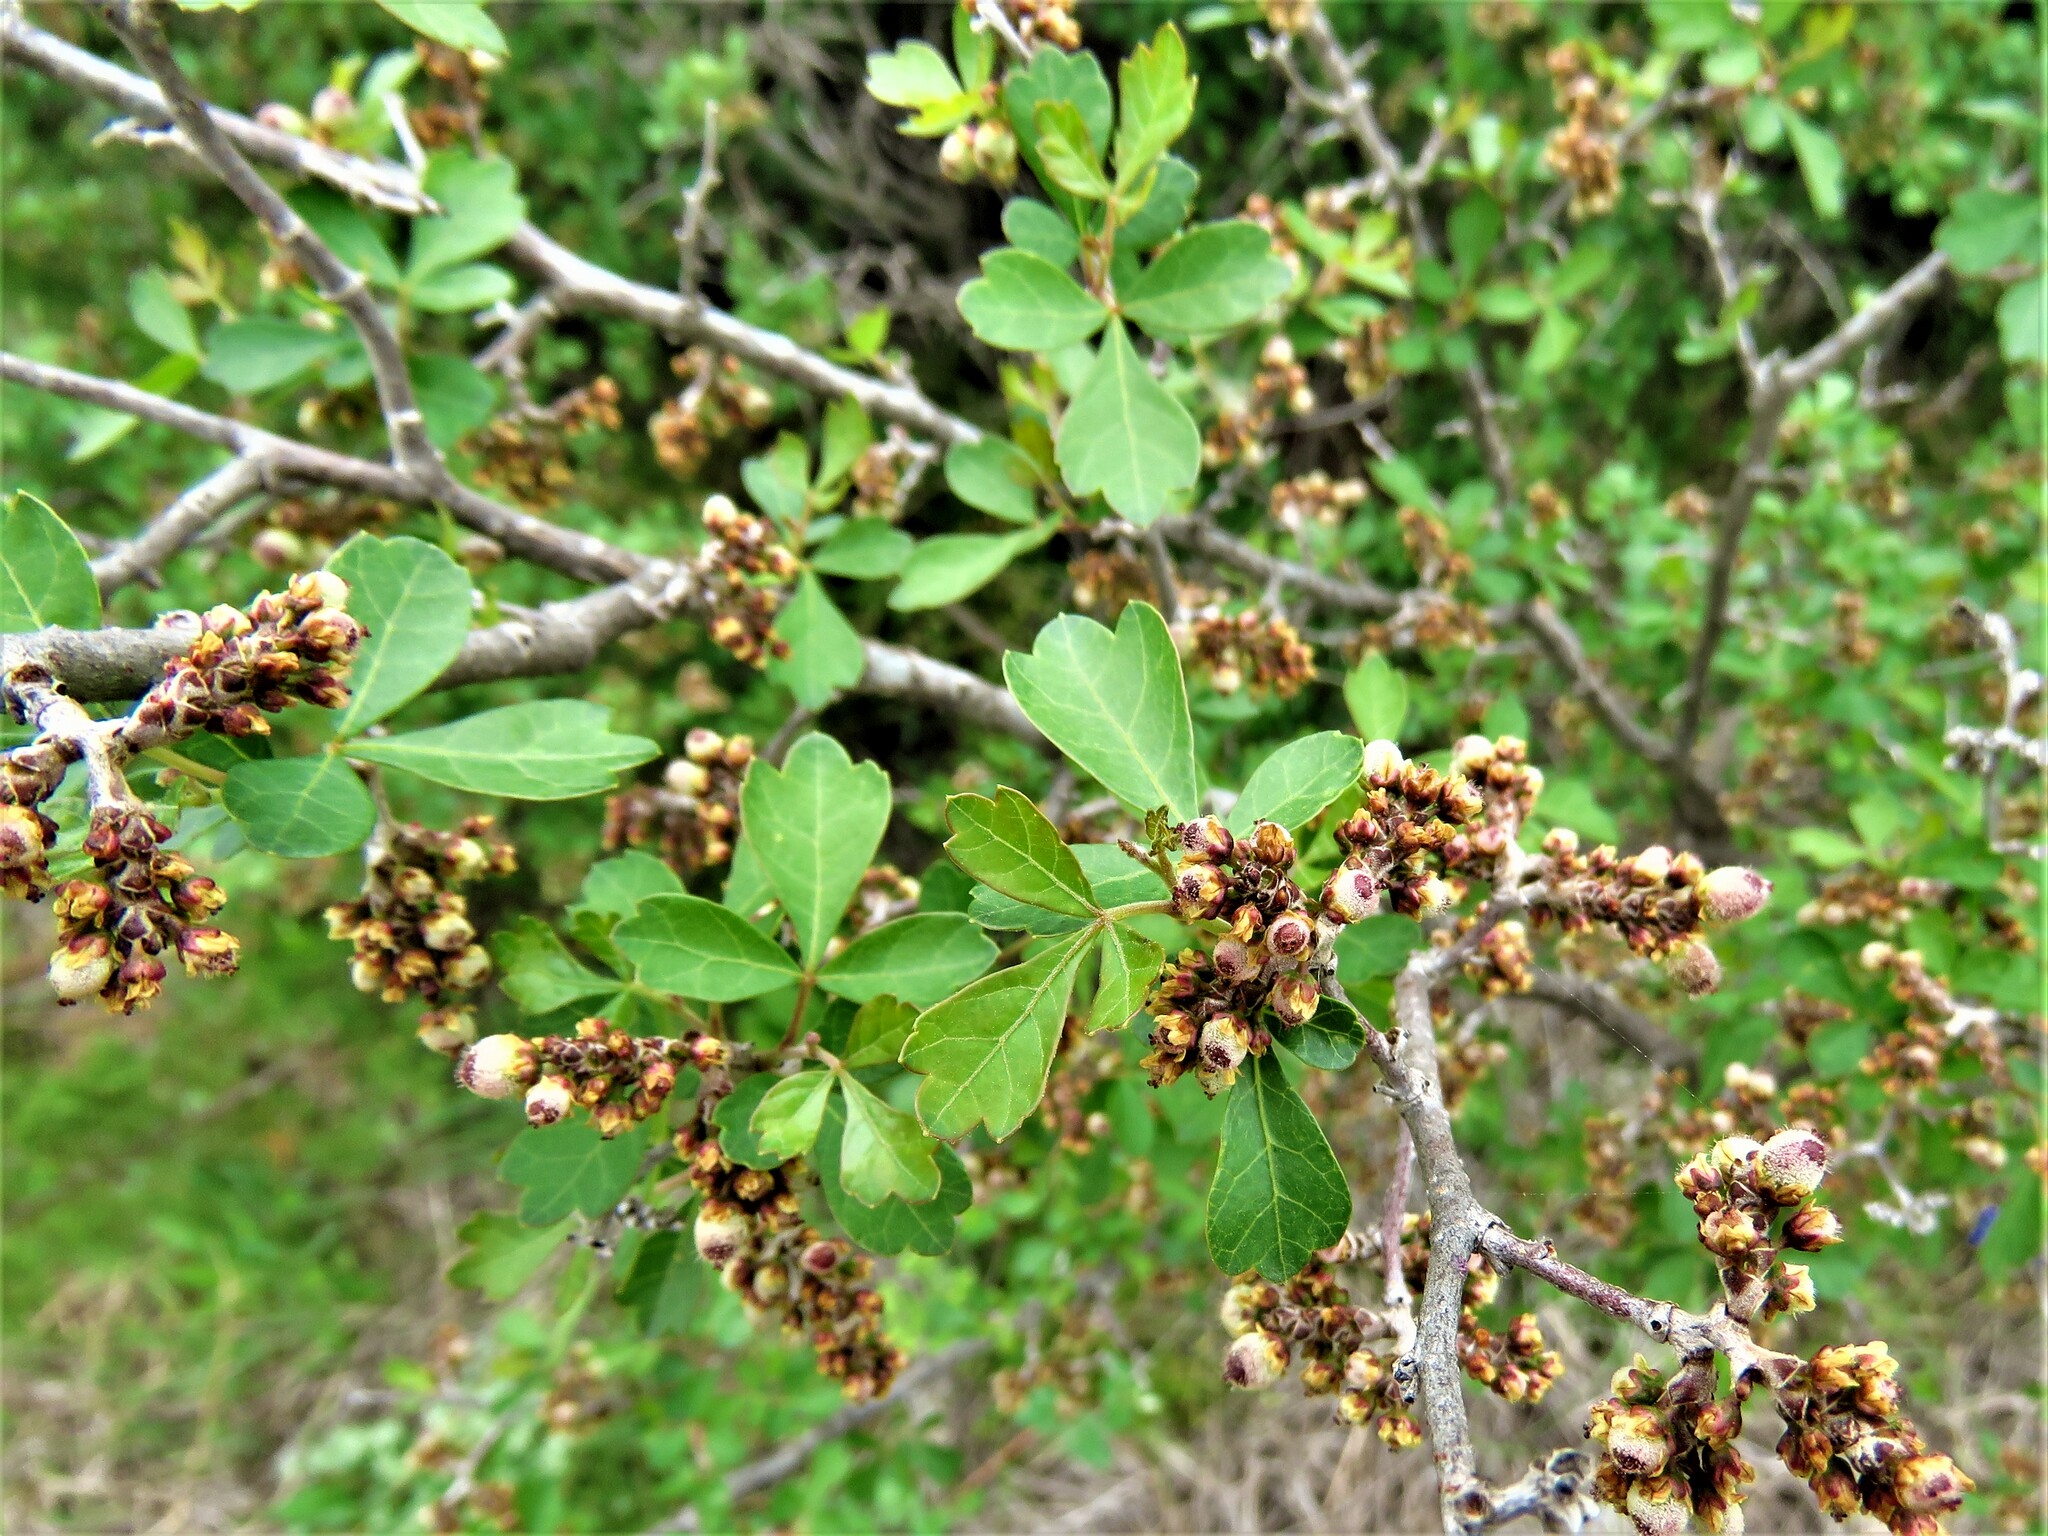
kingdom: Plantae
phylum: Tracheophyta
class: Magnoliopsida
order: Sapindales
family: Anacardiaceae
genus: Rhus
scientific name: Rhus aromatica
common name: Aromatic sumac
